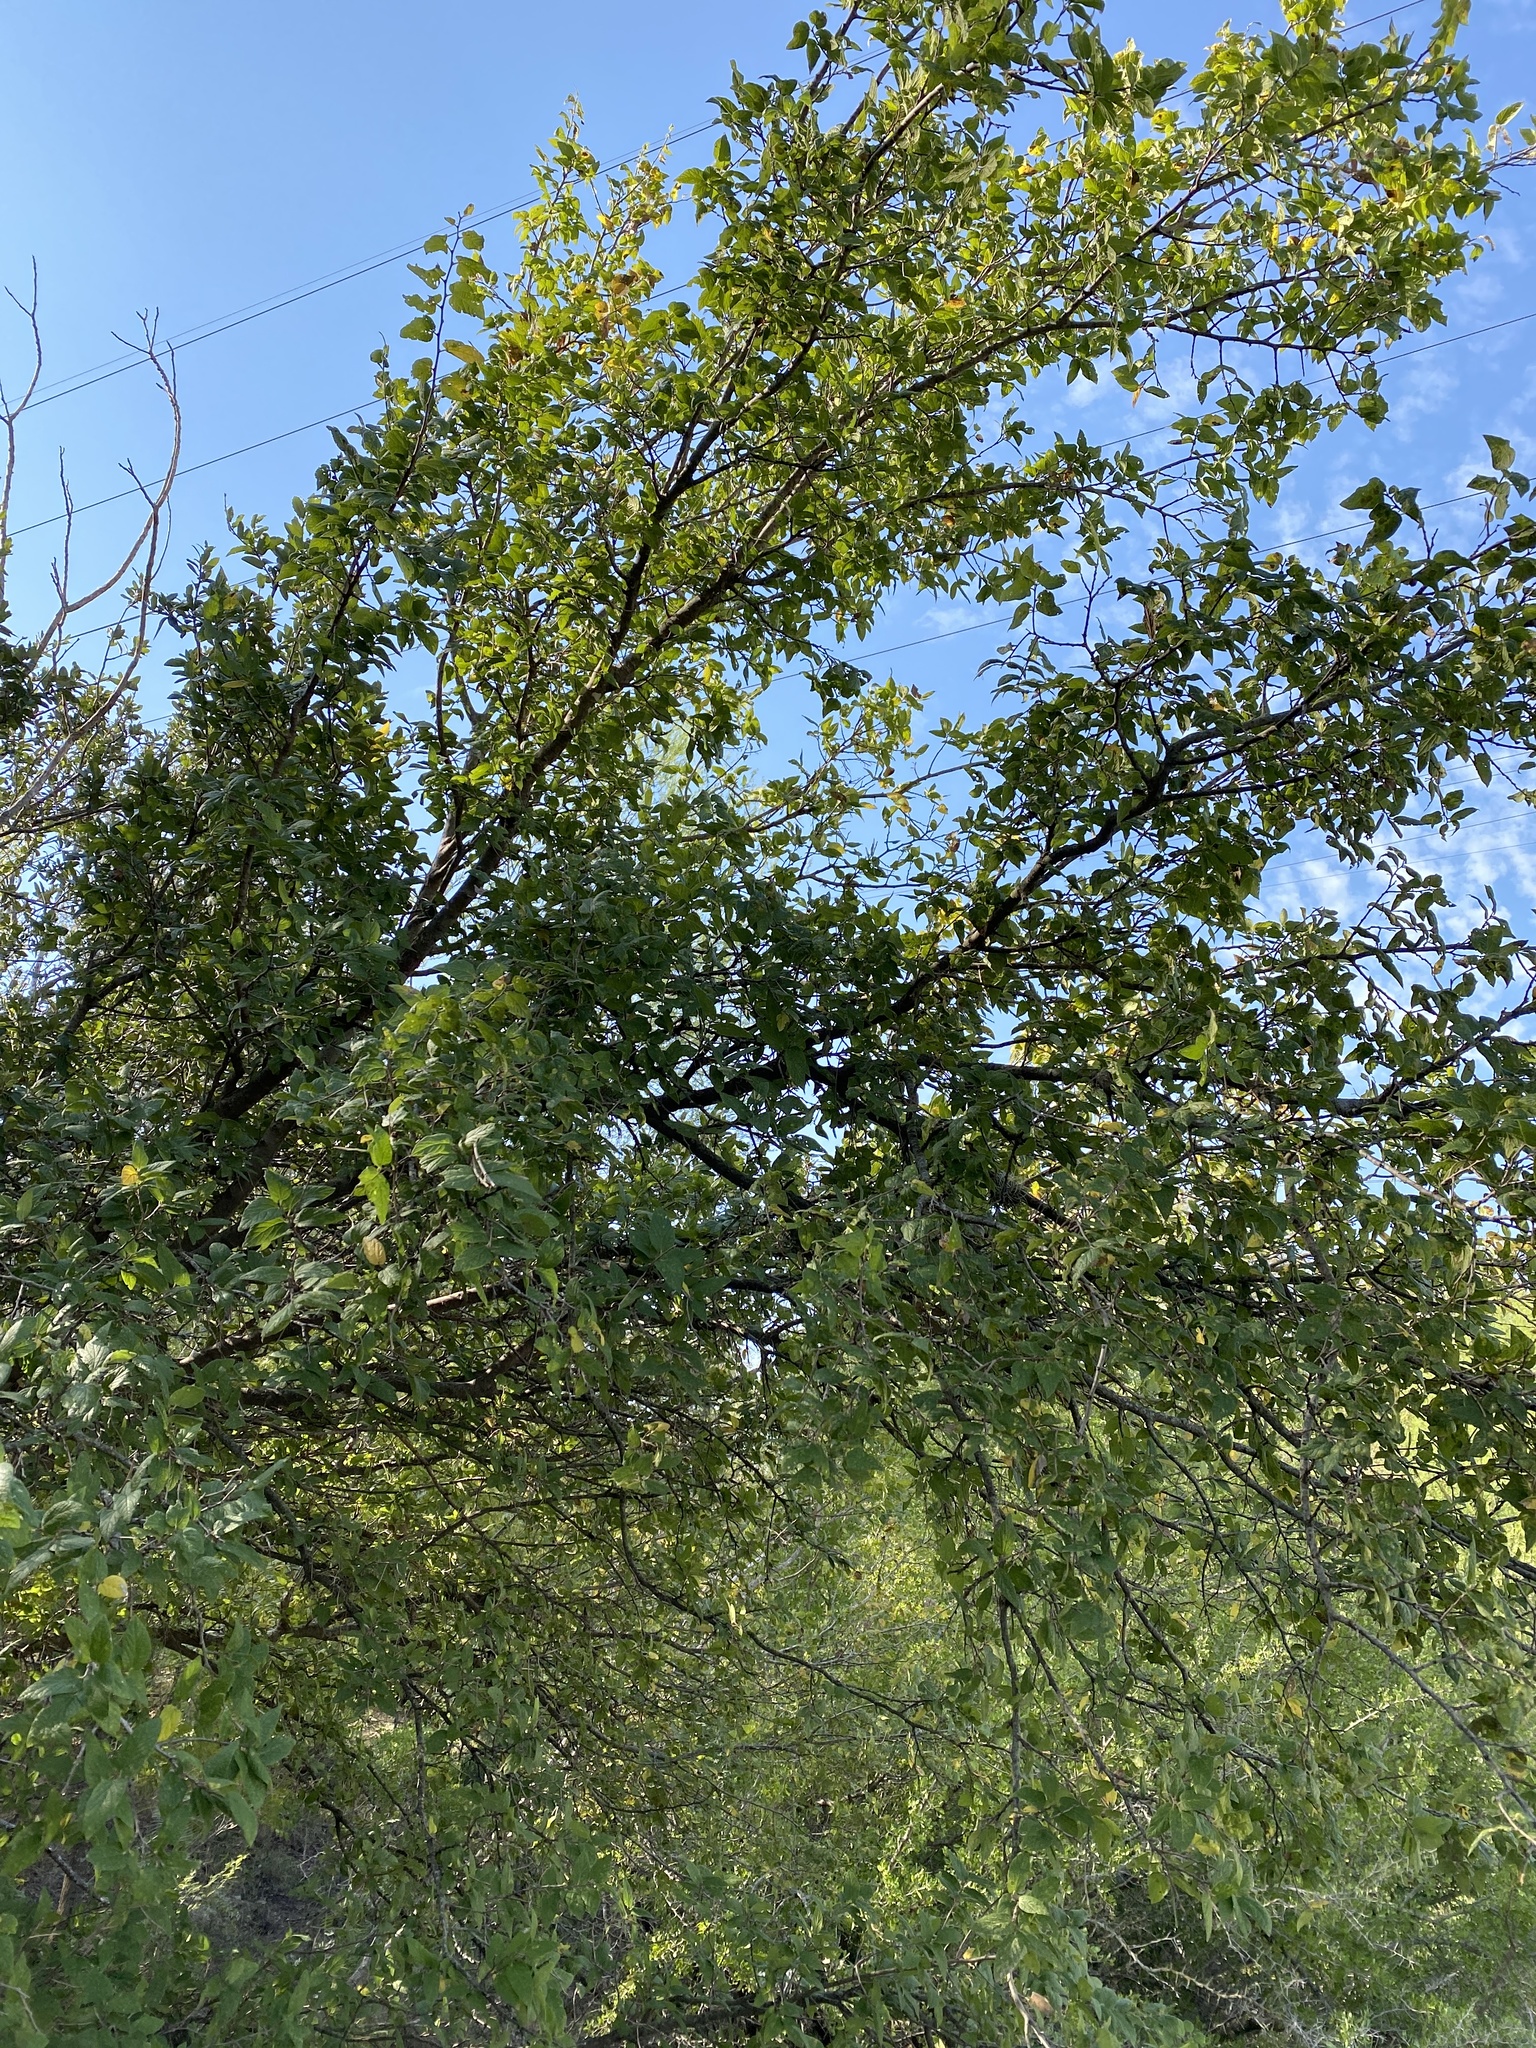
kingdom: Plantae
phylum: Tracheophyta
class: Magnoliopsida
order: Rosales
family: Cannabaceae
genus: Celtis
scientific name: Celtis reticulata
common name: Netleaf hackberry
